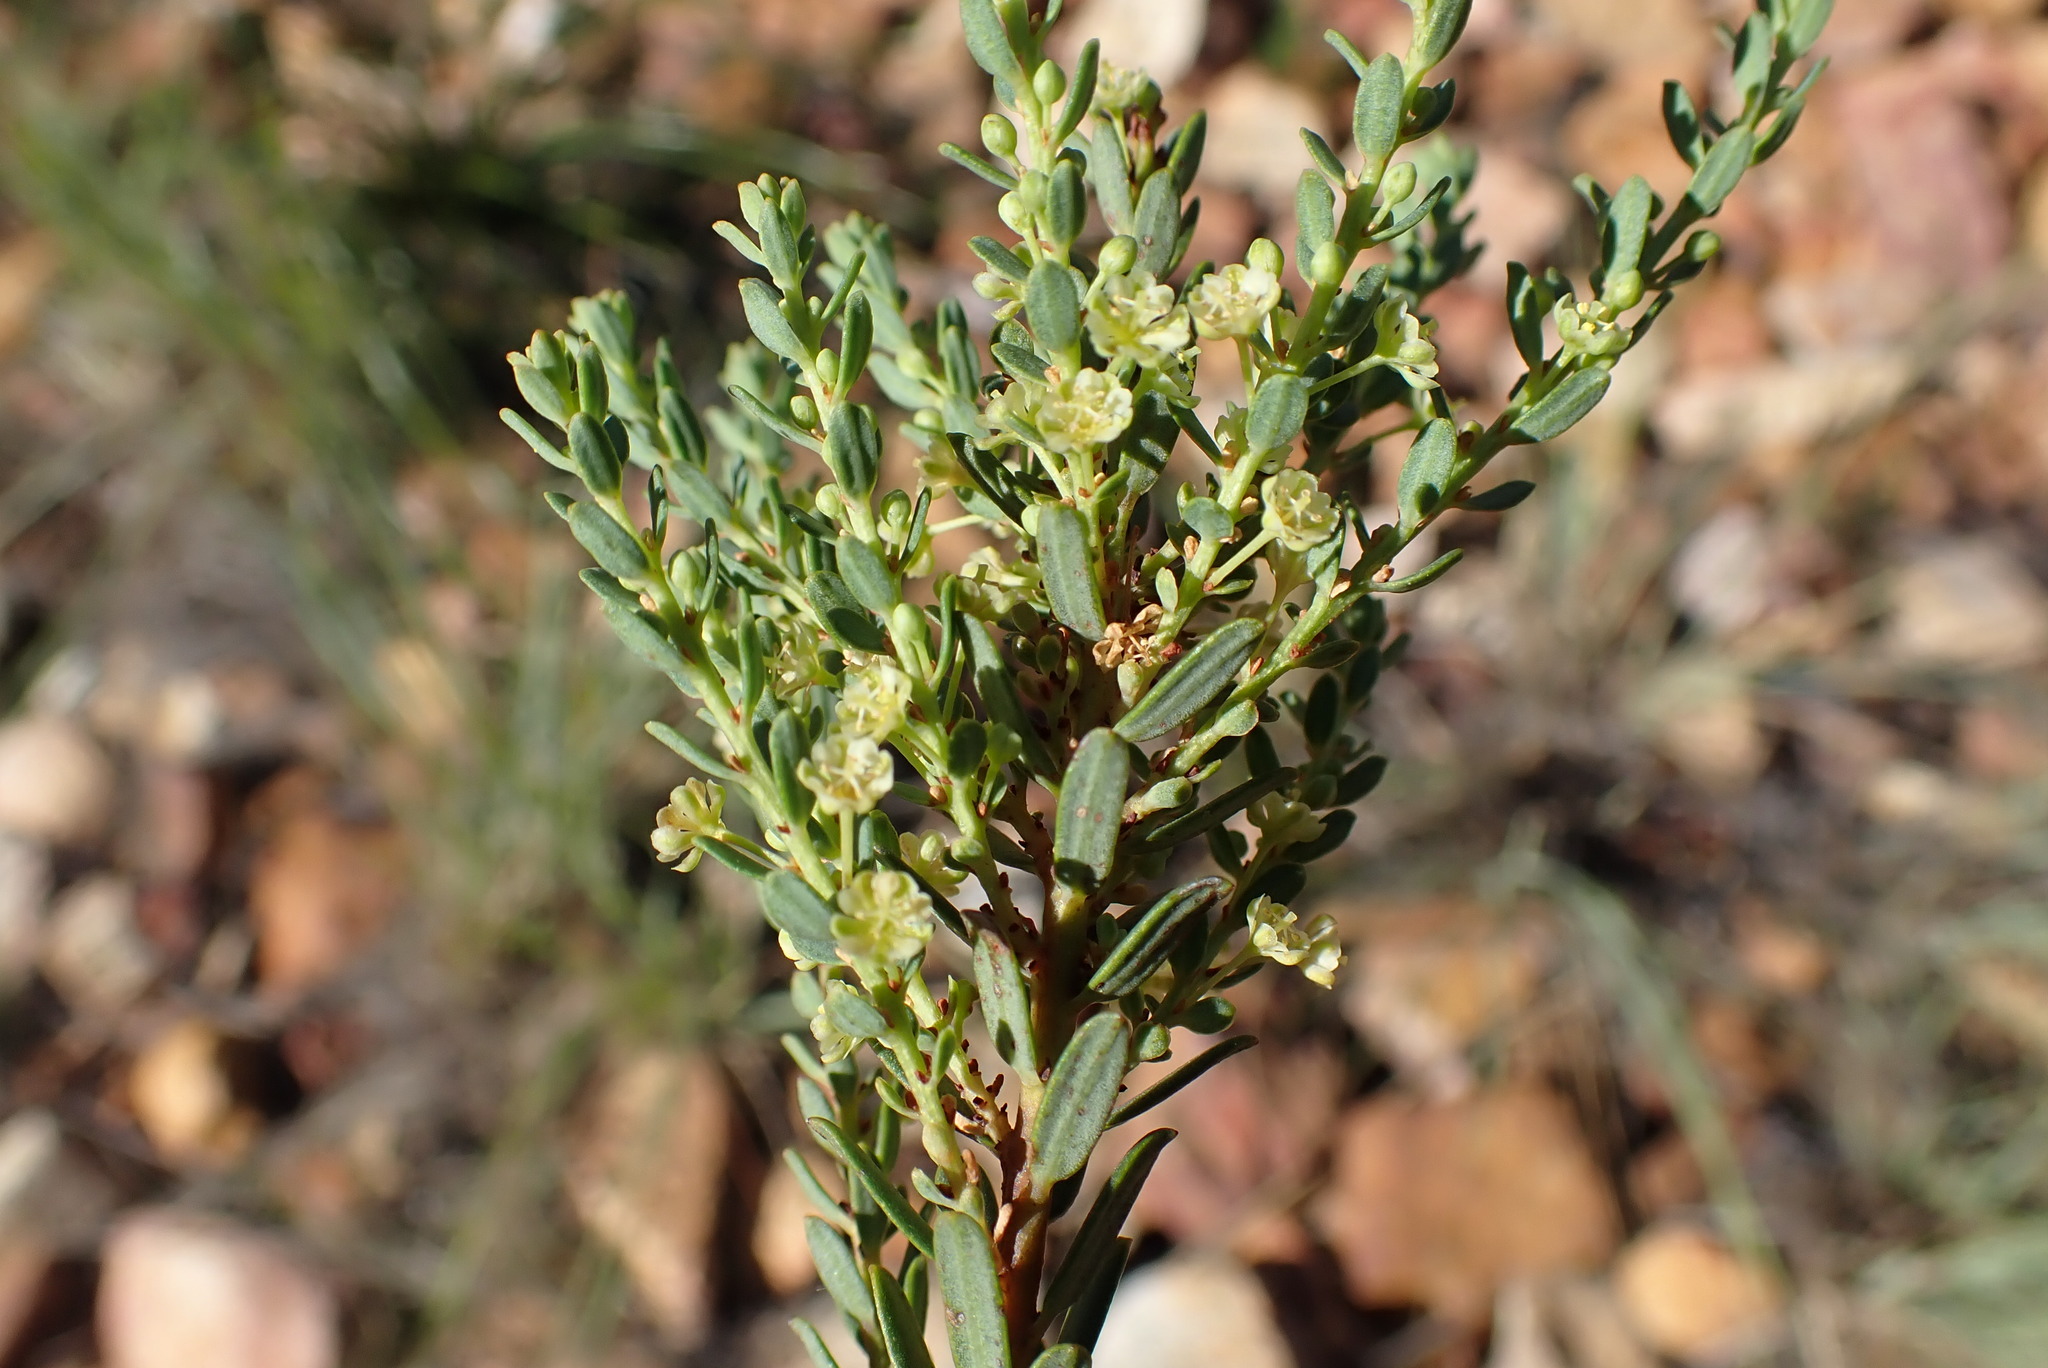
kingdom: Plantae
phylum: Tracheophyta
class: Magnoliopsida
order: Malpighiales
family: Peraceae
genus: Clutia
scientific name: Clutia laxa
